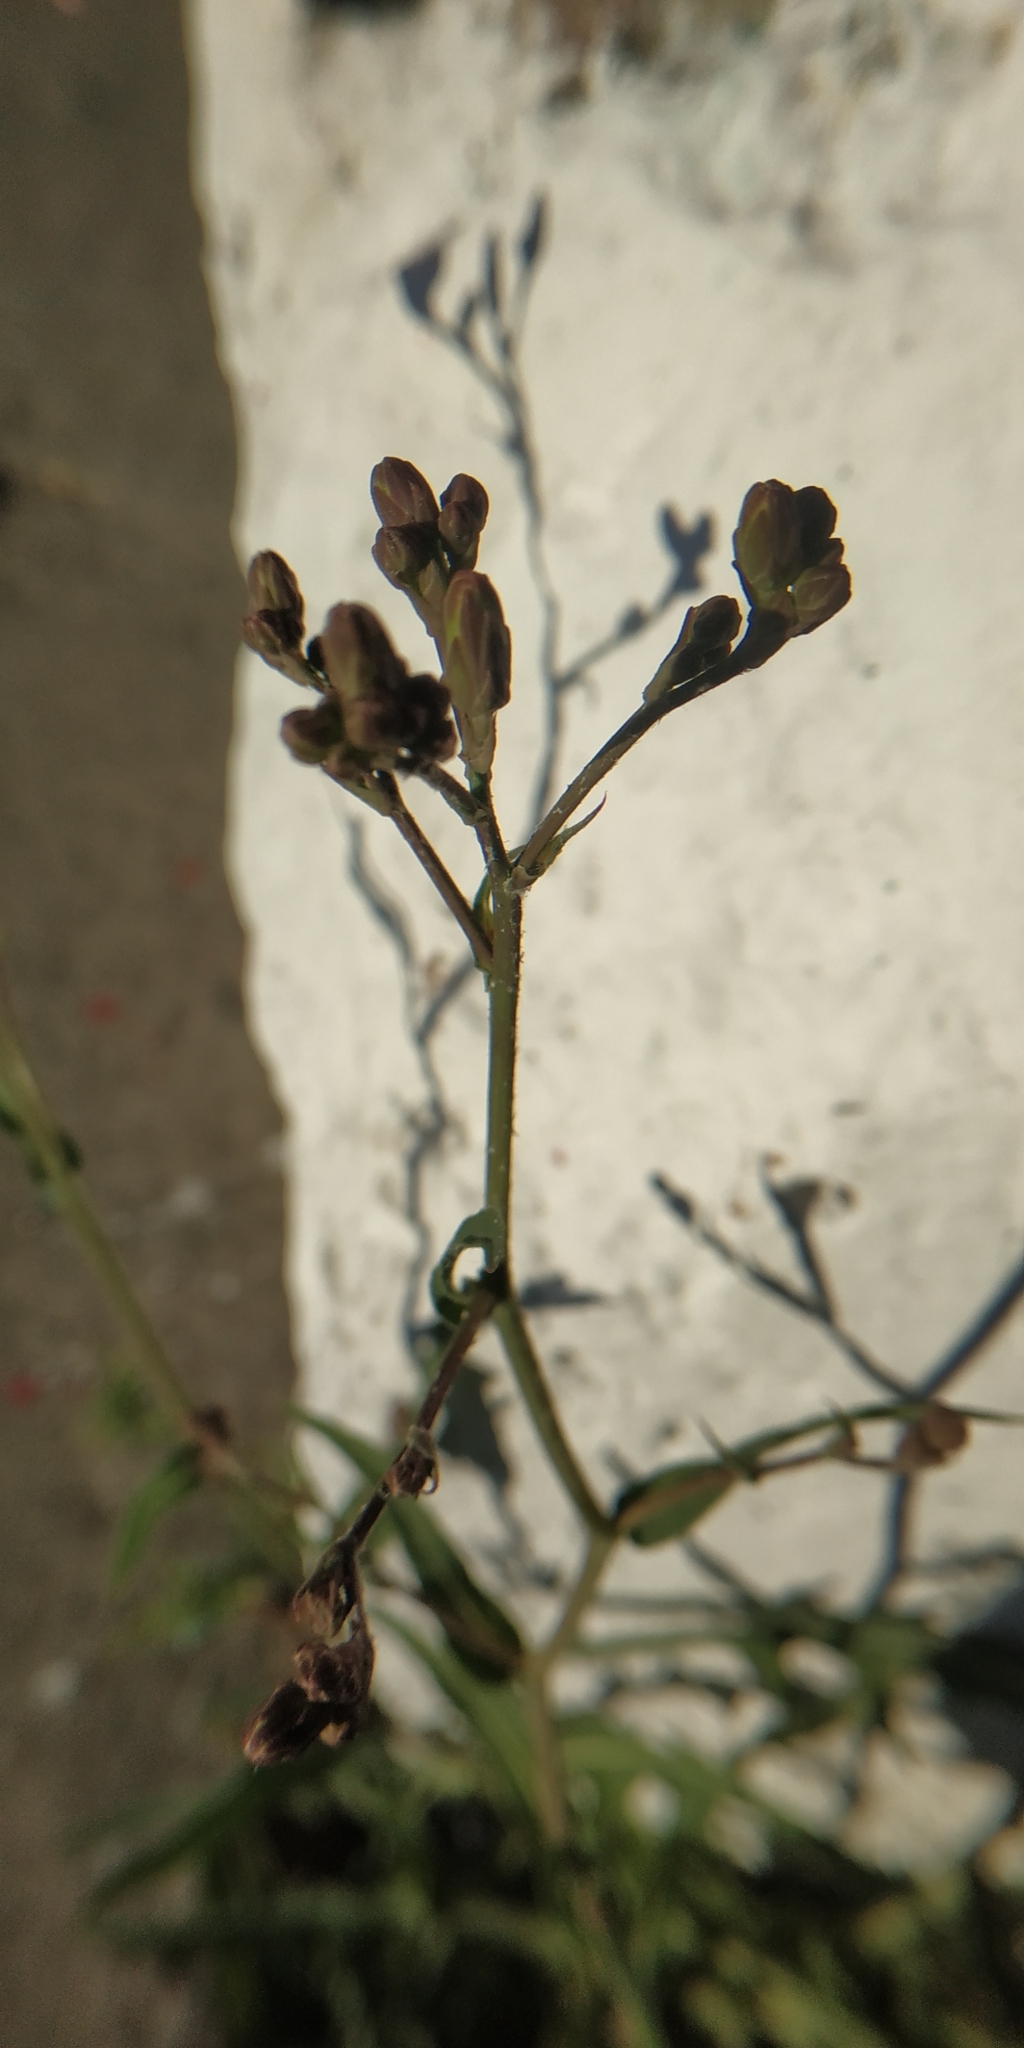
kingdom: Plantae
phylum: Tracheophyta
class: Magnoliopsida
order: Asterales
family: Asteraceae
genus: Lactuca
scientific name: Lactuca tatarica
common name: Blue lettuce
